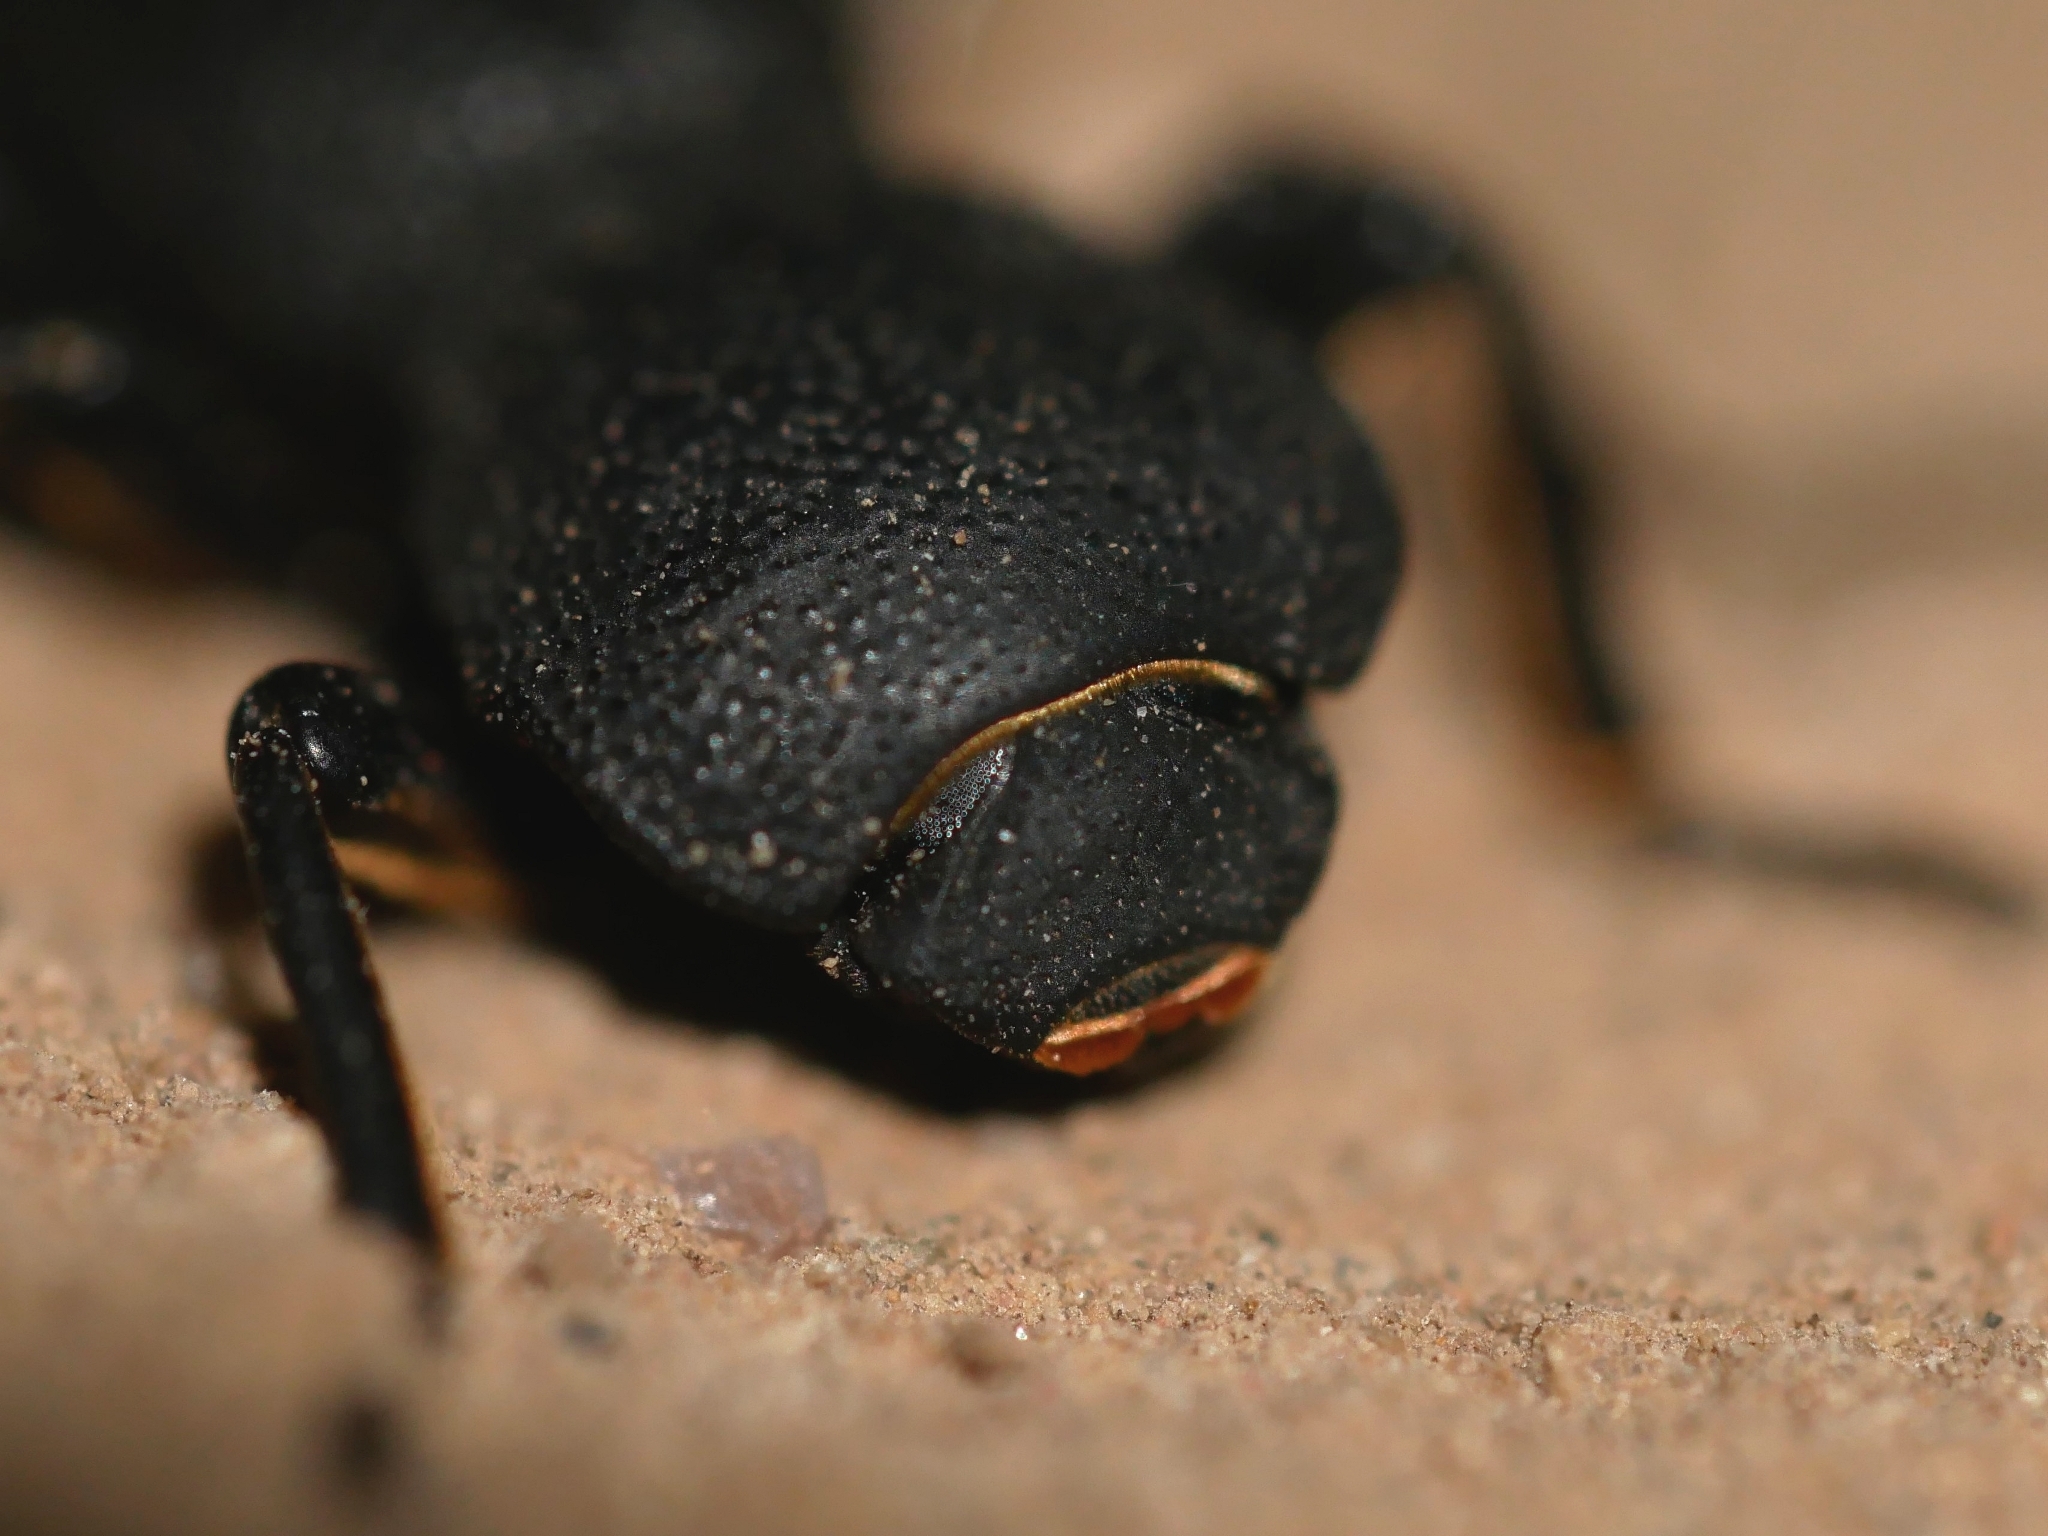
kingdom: Animalia
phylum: Arthropoda
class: Insecta
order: Coleoptera
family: Zopheridae
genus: Zopherus
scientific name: Zopherus uteanus
